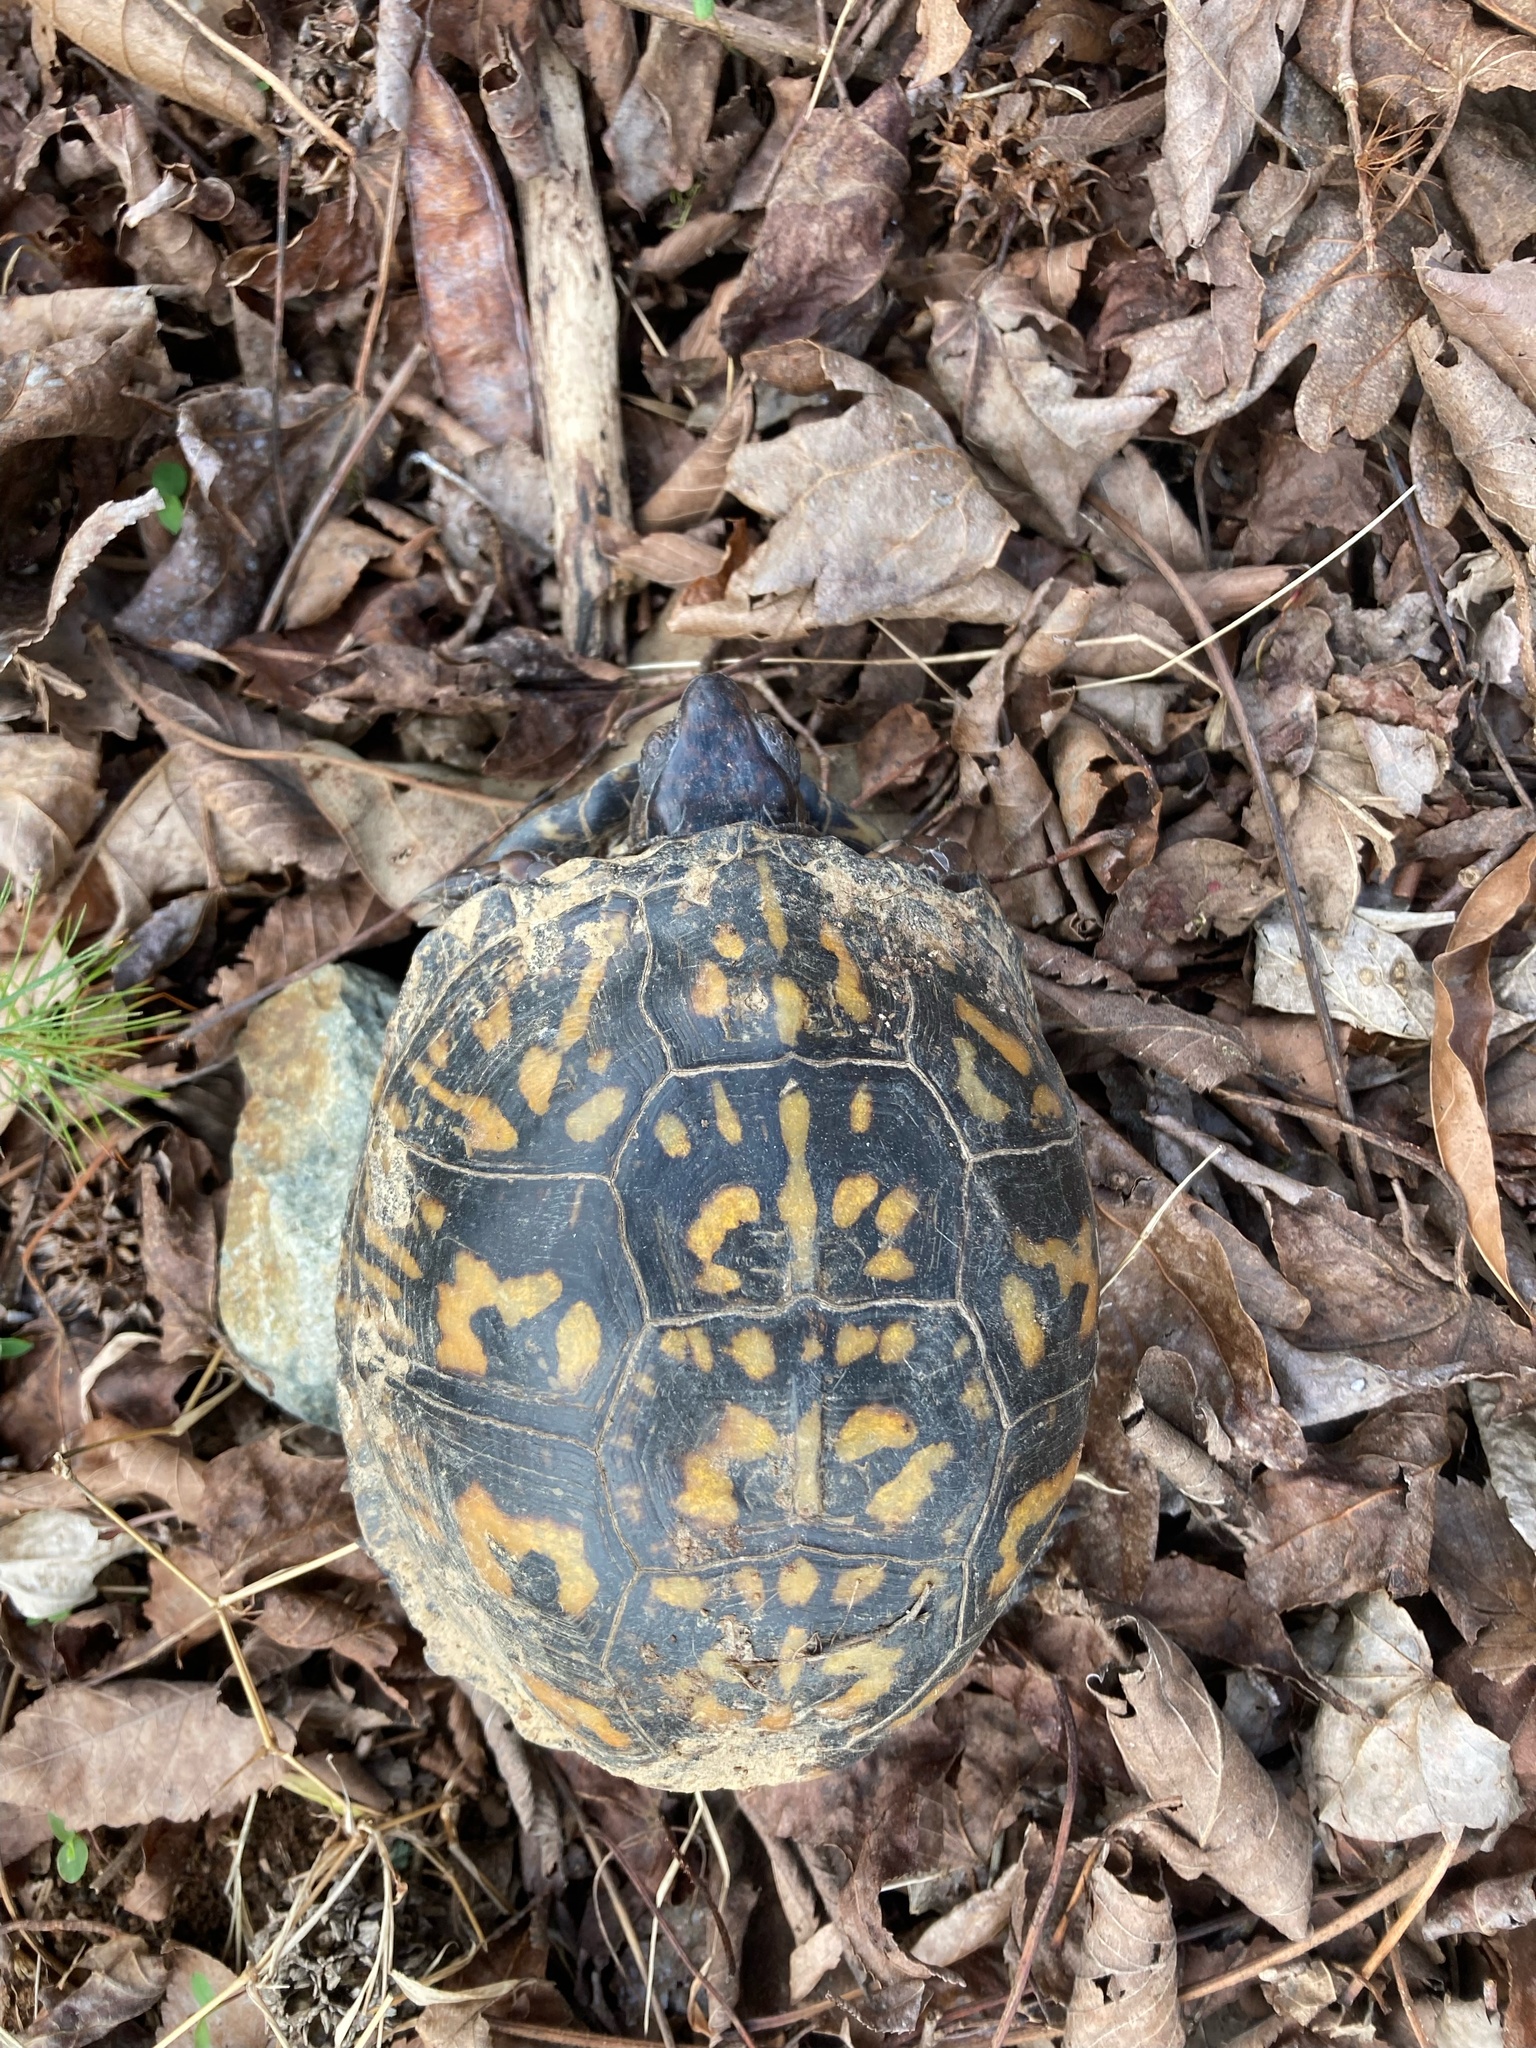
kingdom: Animalia
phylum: Chordata
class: Testudines
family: Emydidae
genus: Terrapene
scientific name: Terrapene carolina
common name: Common box turtle
